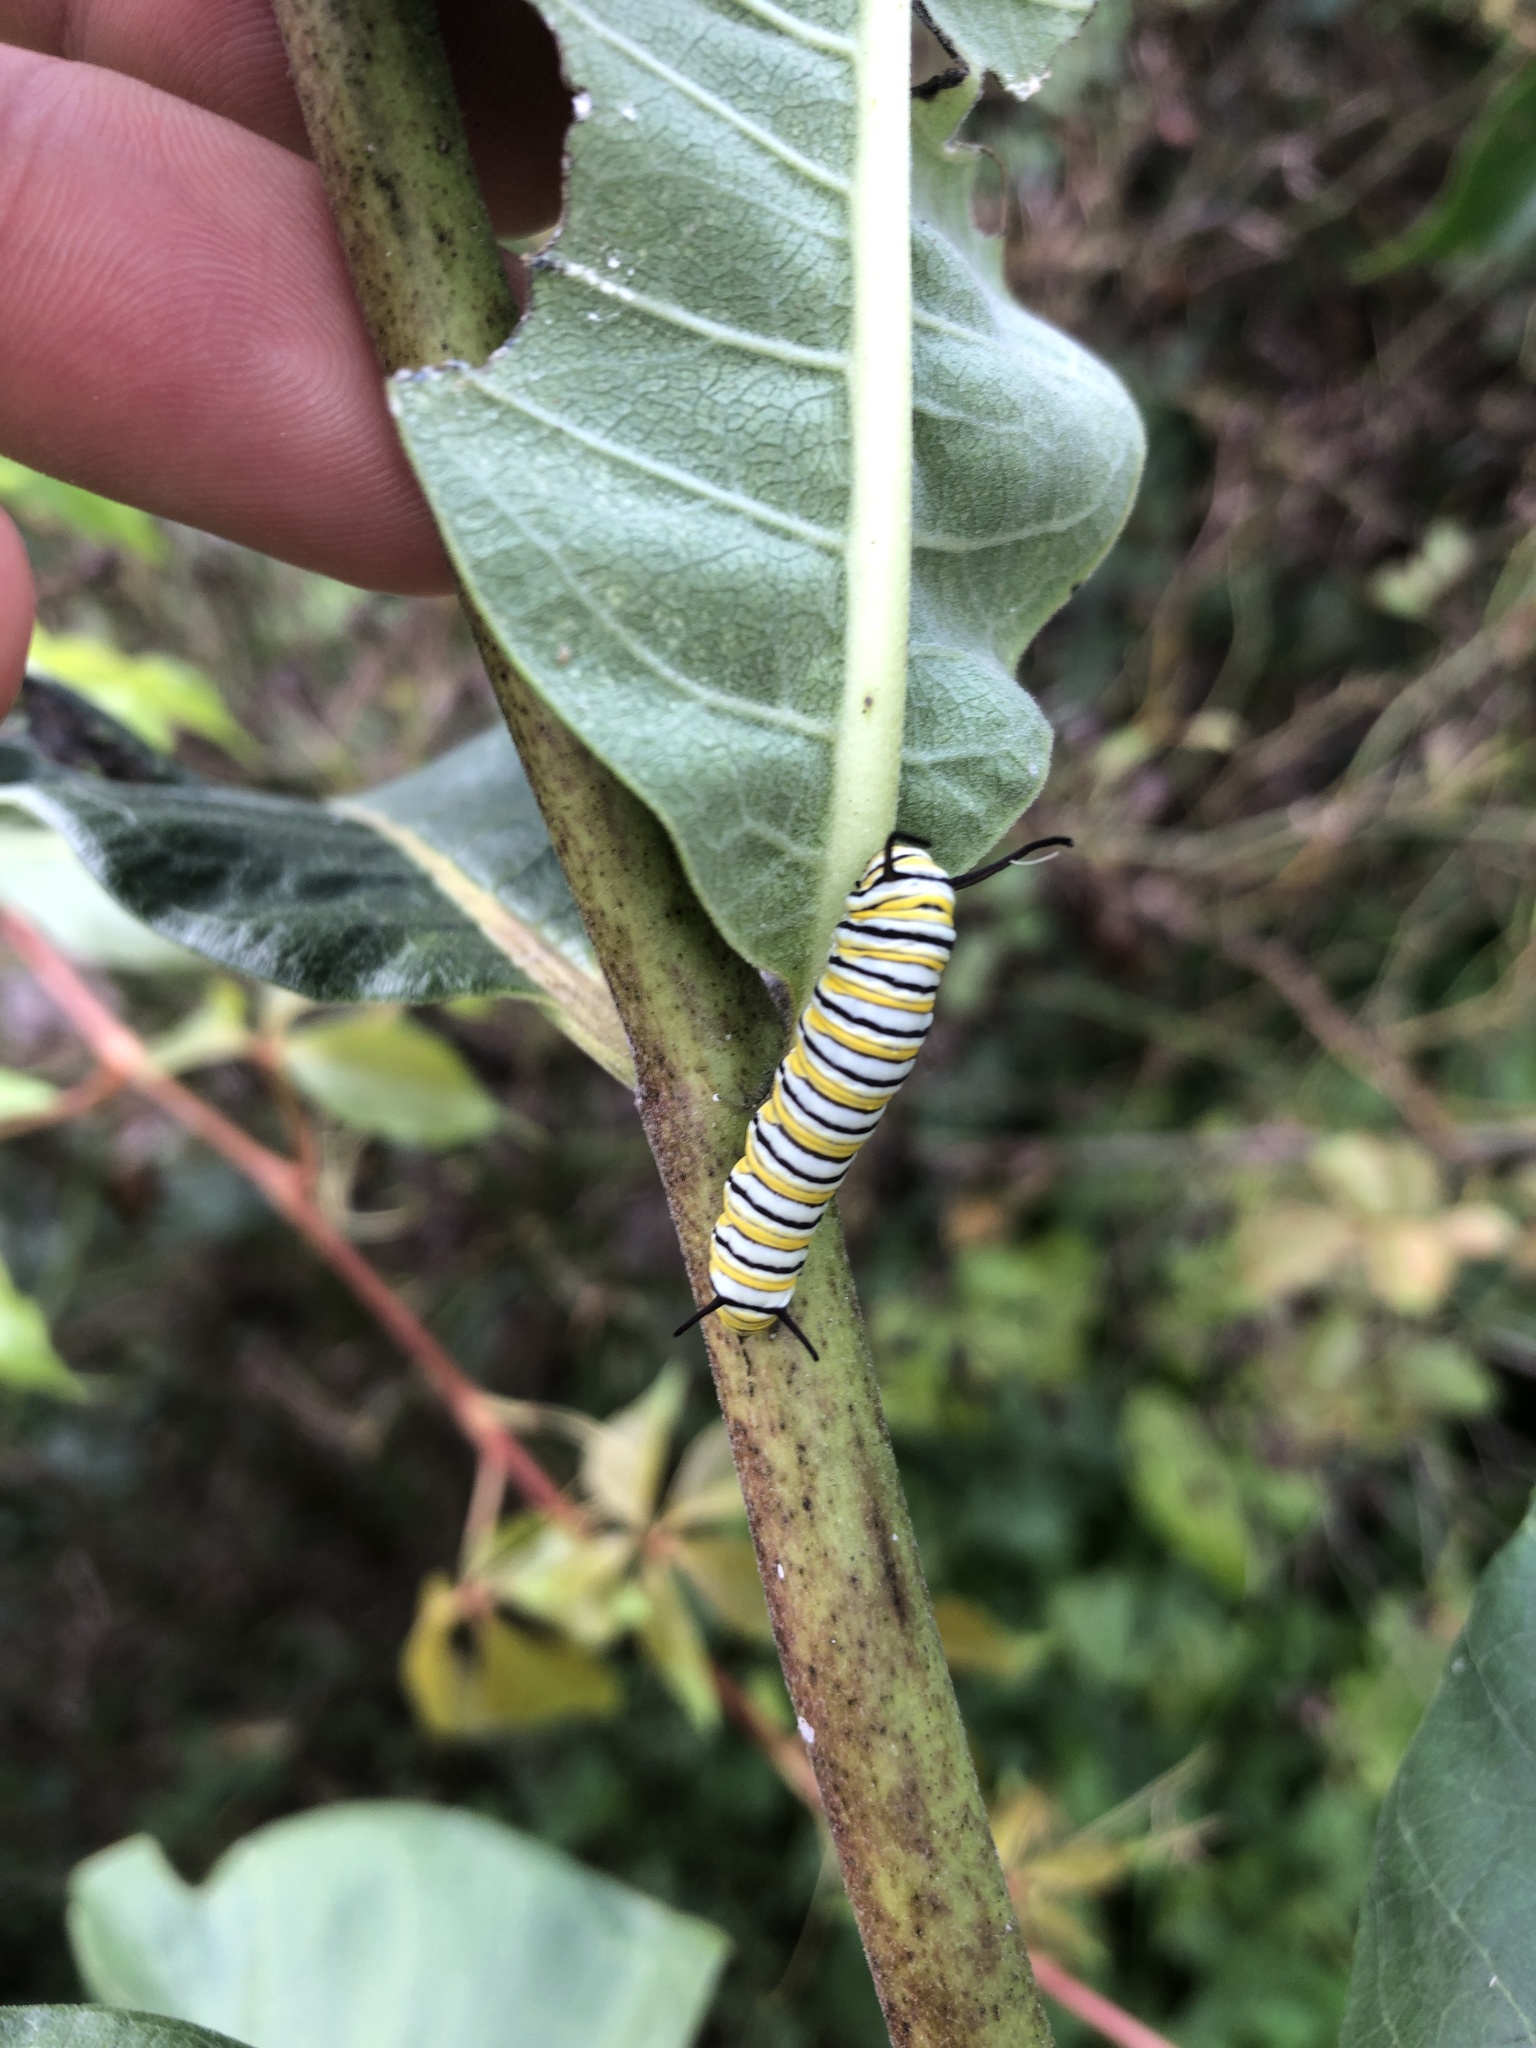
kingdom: Animalia
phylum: Arthropoda
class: Insecta
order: Lepidoptera
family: Nymphalidae
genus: Danaus
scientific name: Danaus plexippus
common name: Monarch
